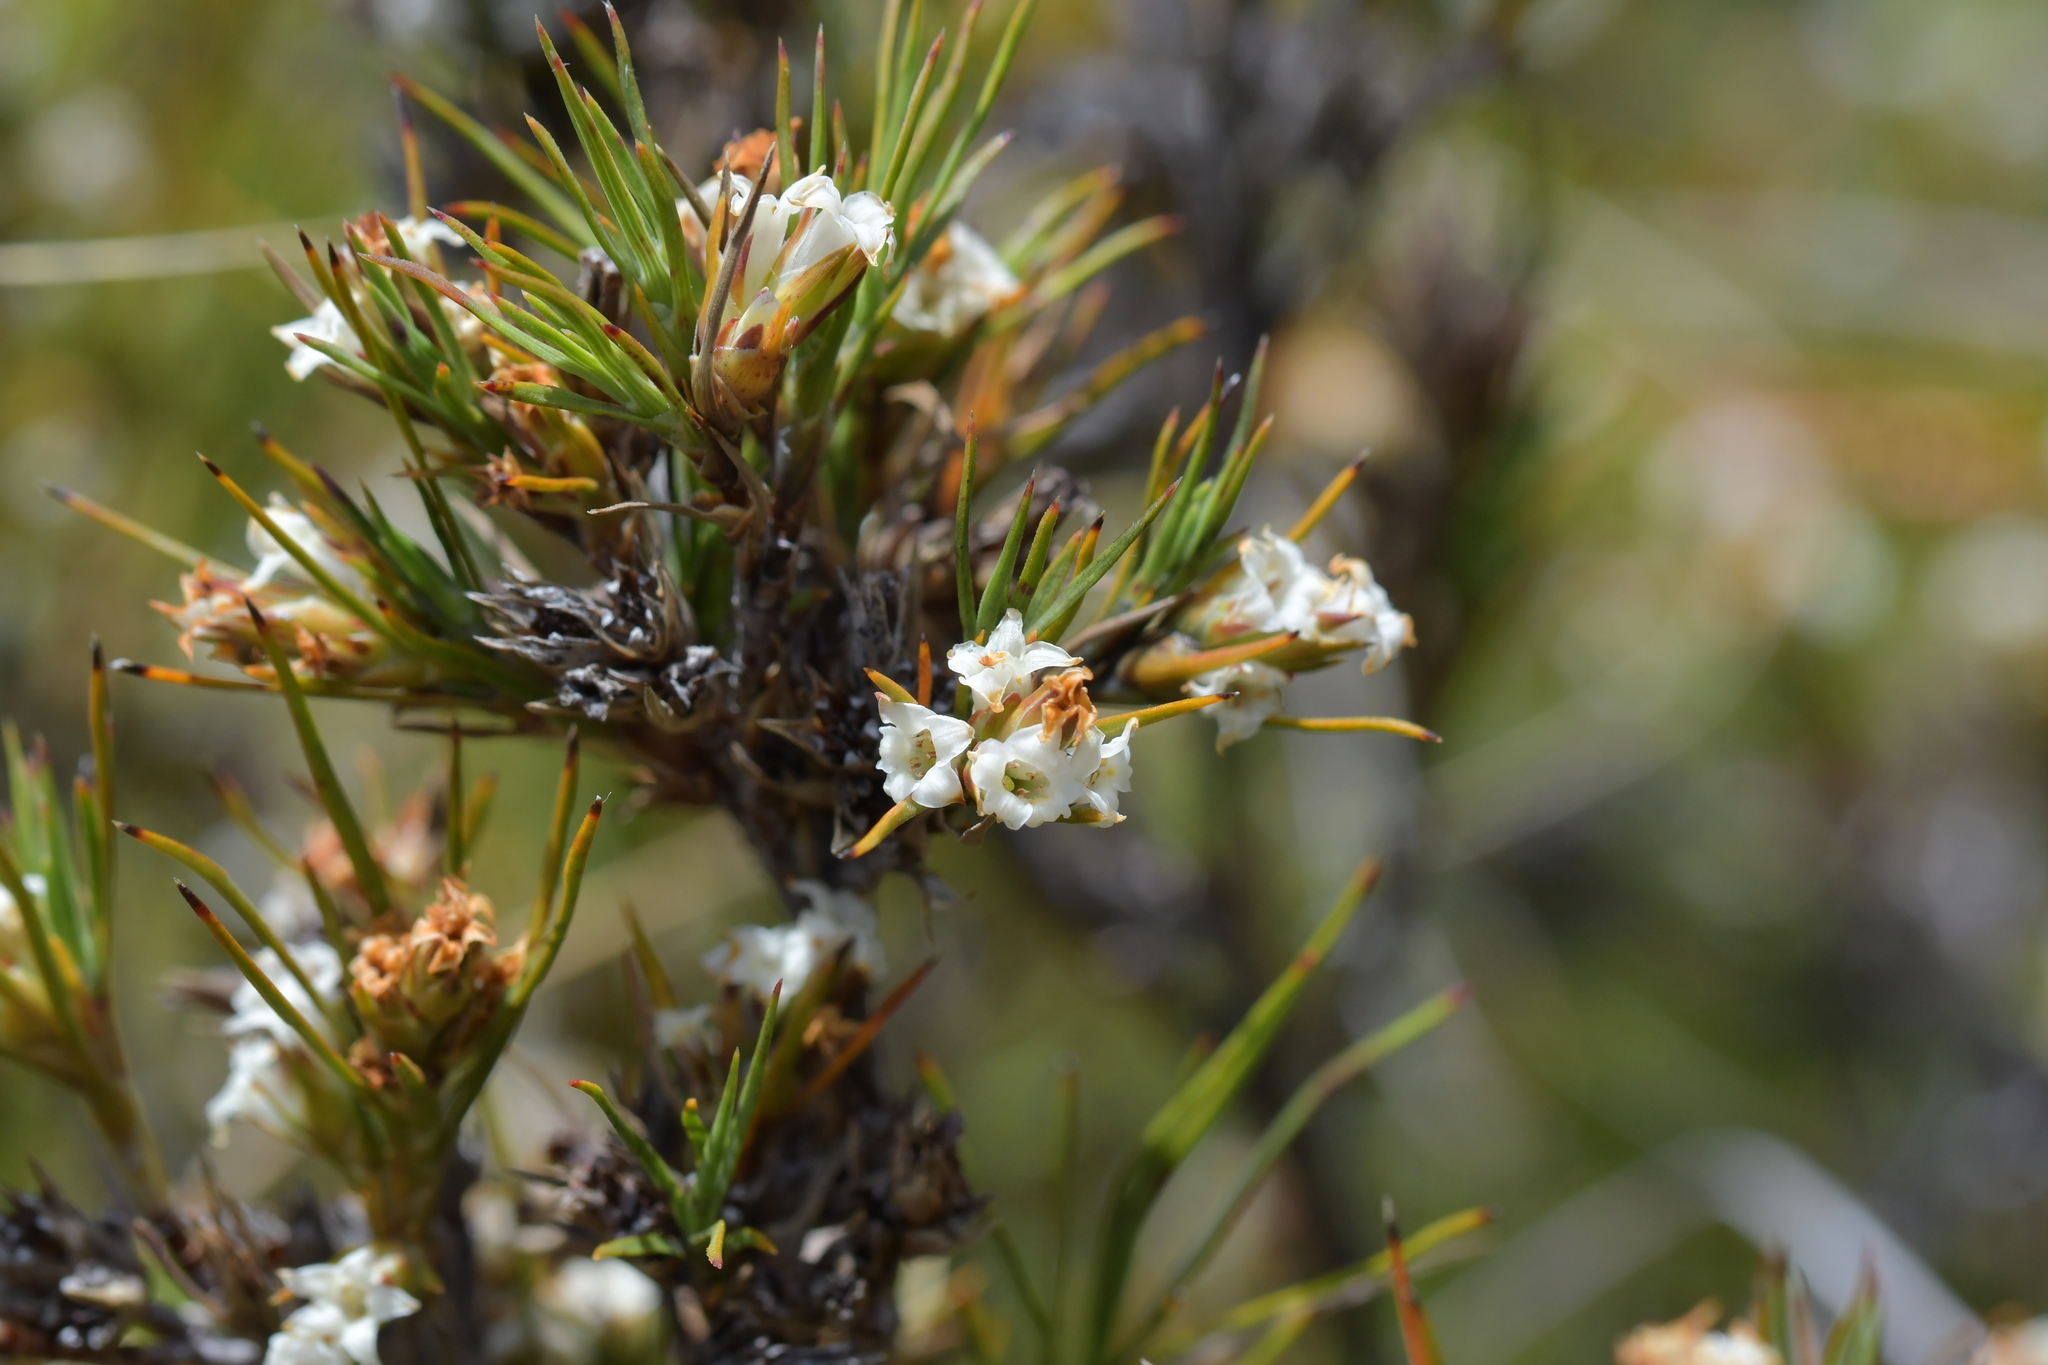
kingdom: Plantae
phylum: Tracheophyta
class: Magnoliopsida
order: Ericales
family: Ericaceae
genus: Dracophyllum
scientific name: Dracophyllum rosmarinifolium
